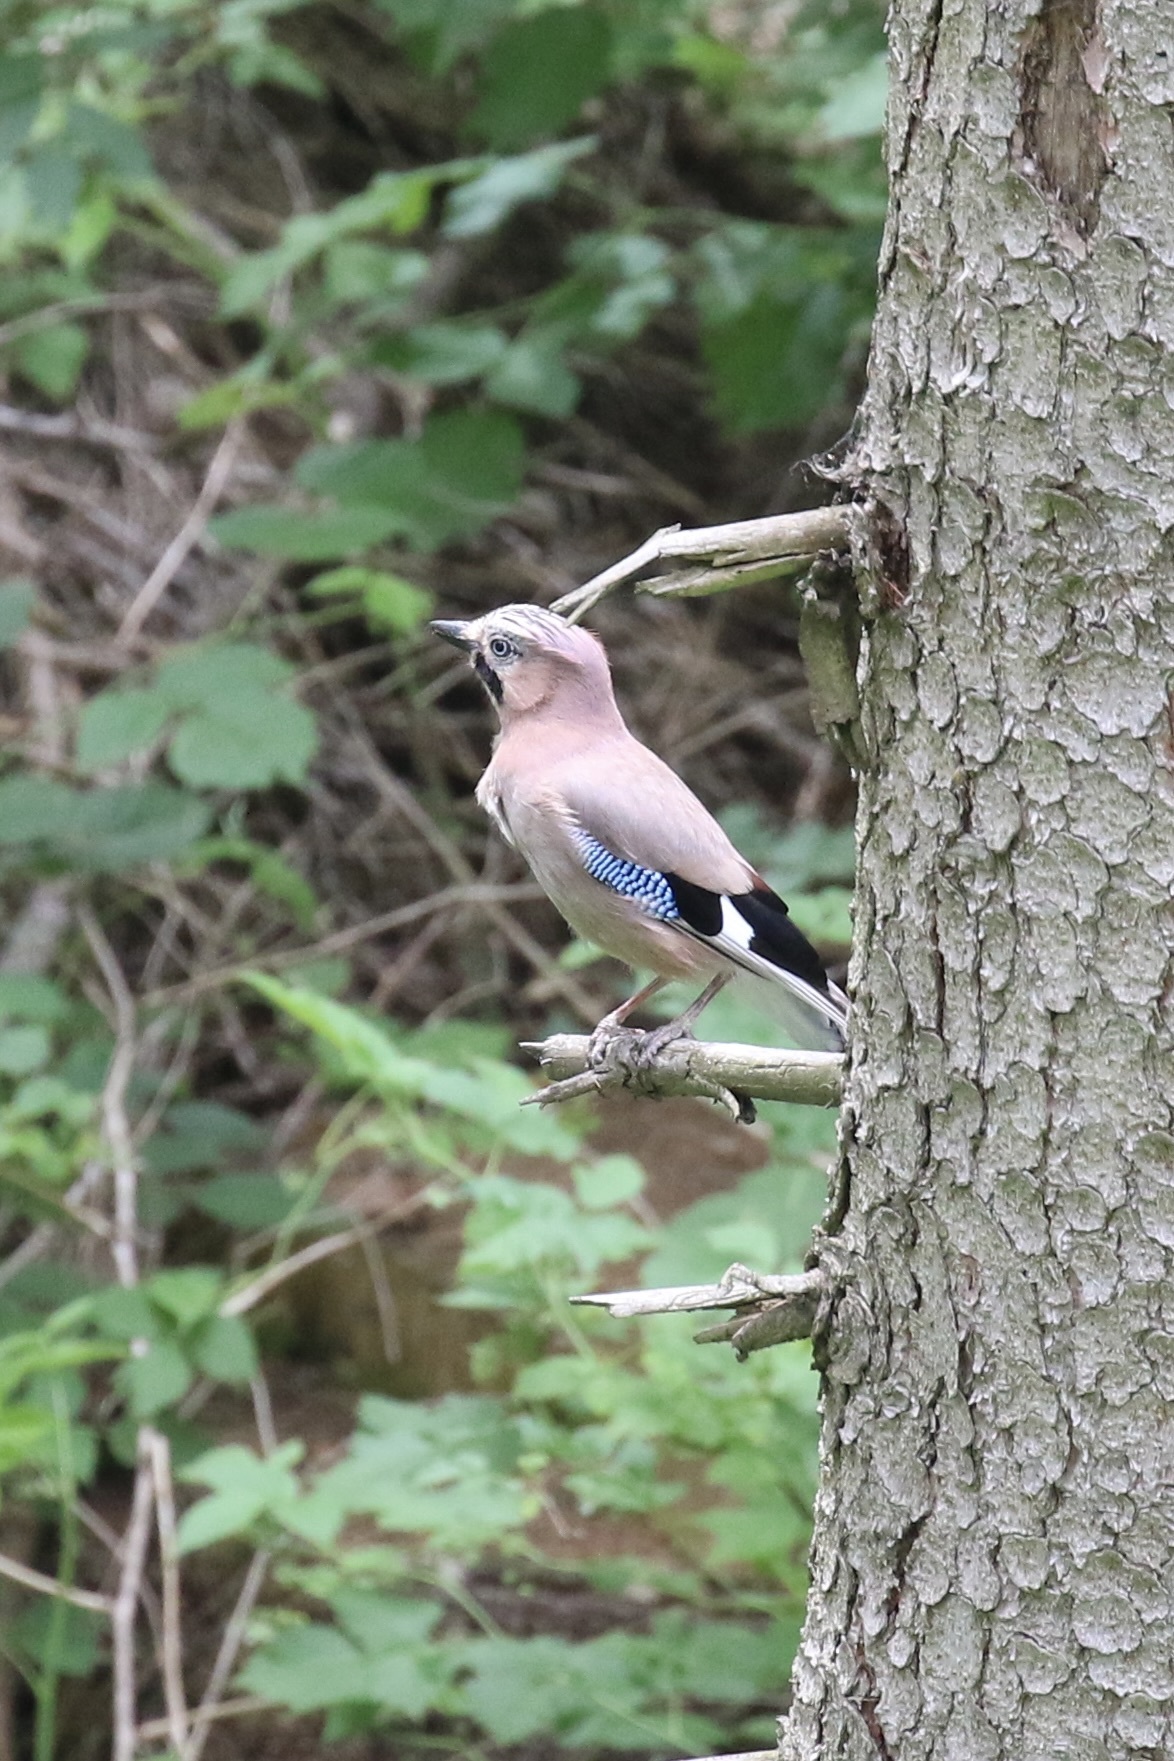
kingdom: Animalia
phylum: Chordata
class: Aves
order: Passeriformes
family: Corvidae
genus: Garrulus
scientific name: Garrulus glandarius
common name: Eurasian jay
